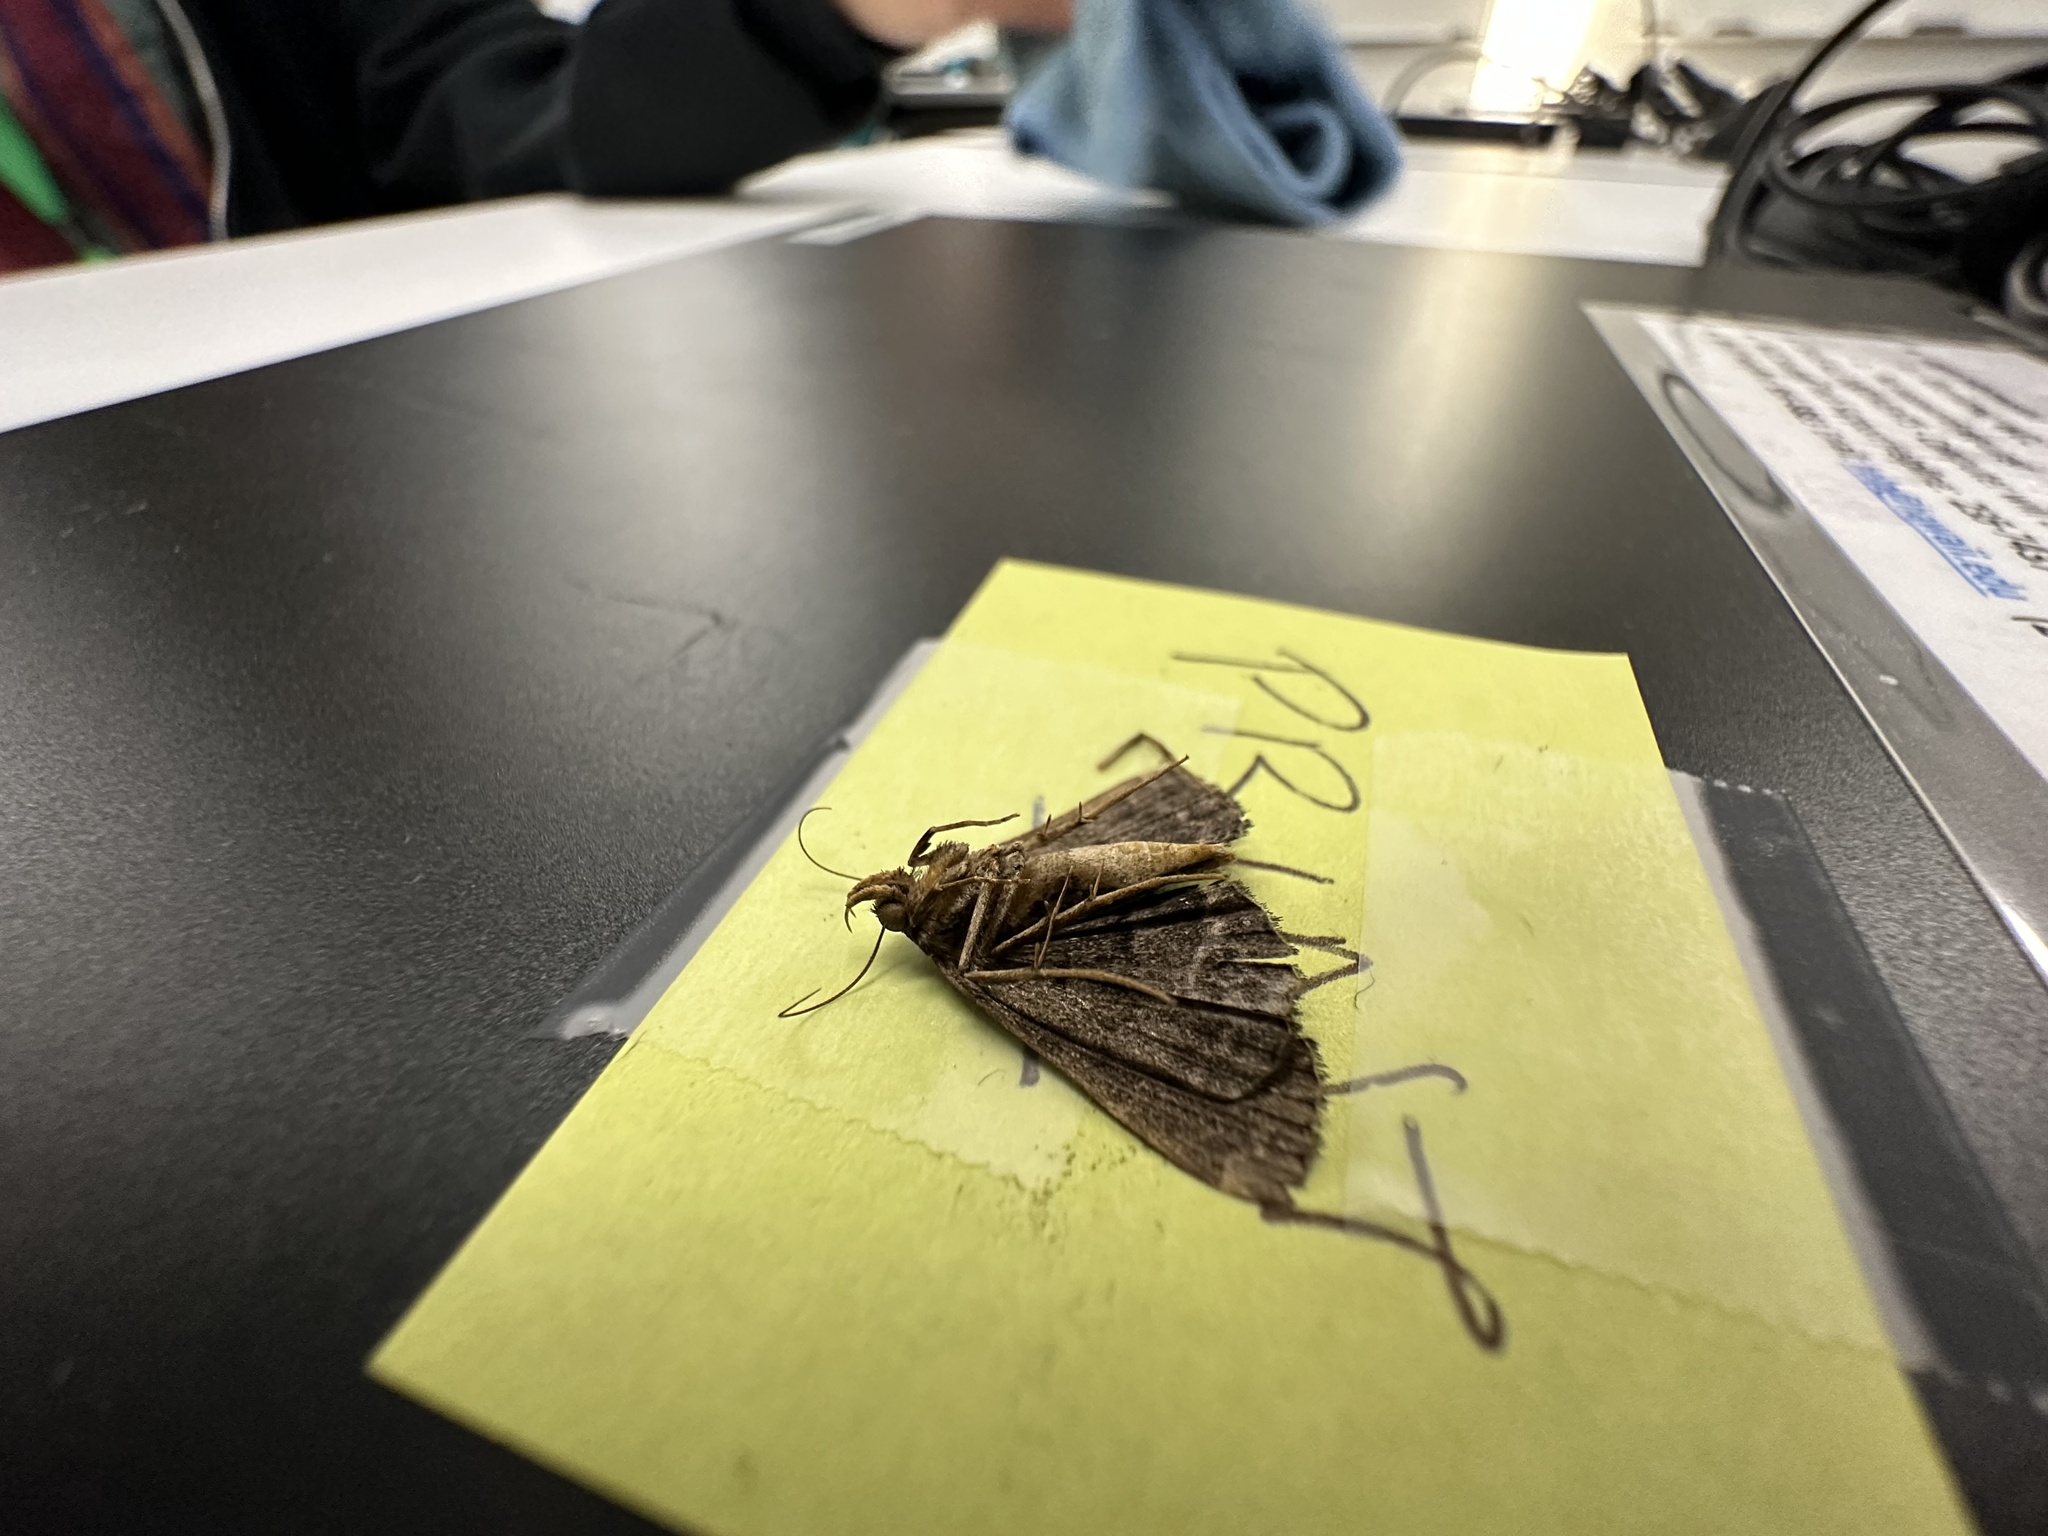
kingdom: Animalia
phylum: Arthropoda
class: Insecta
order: Lepidoptera
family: Erebidae
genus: Bocana
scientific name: Bocana manifestalis
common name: Moth
